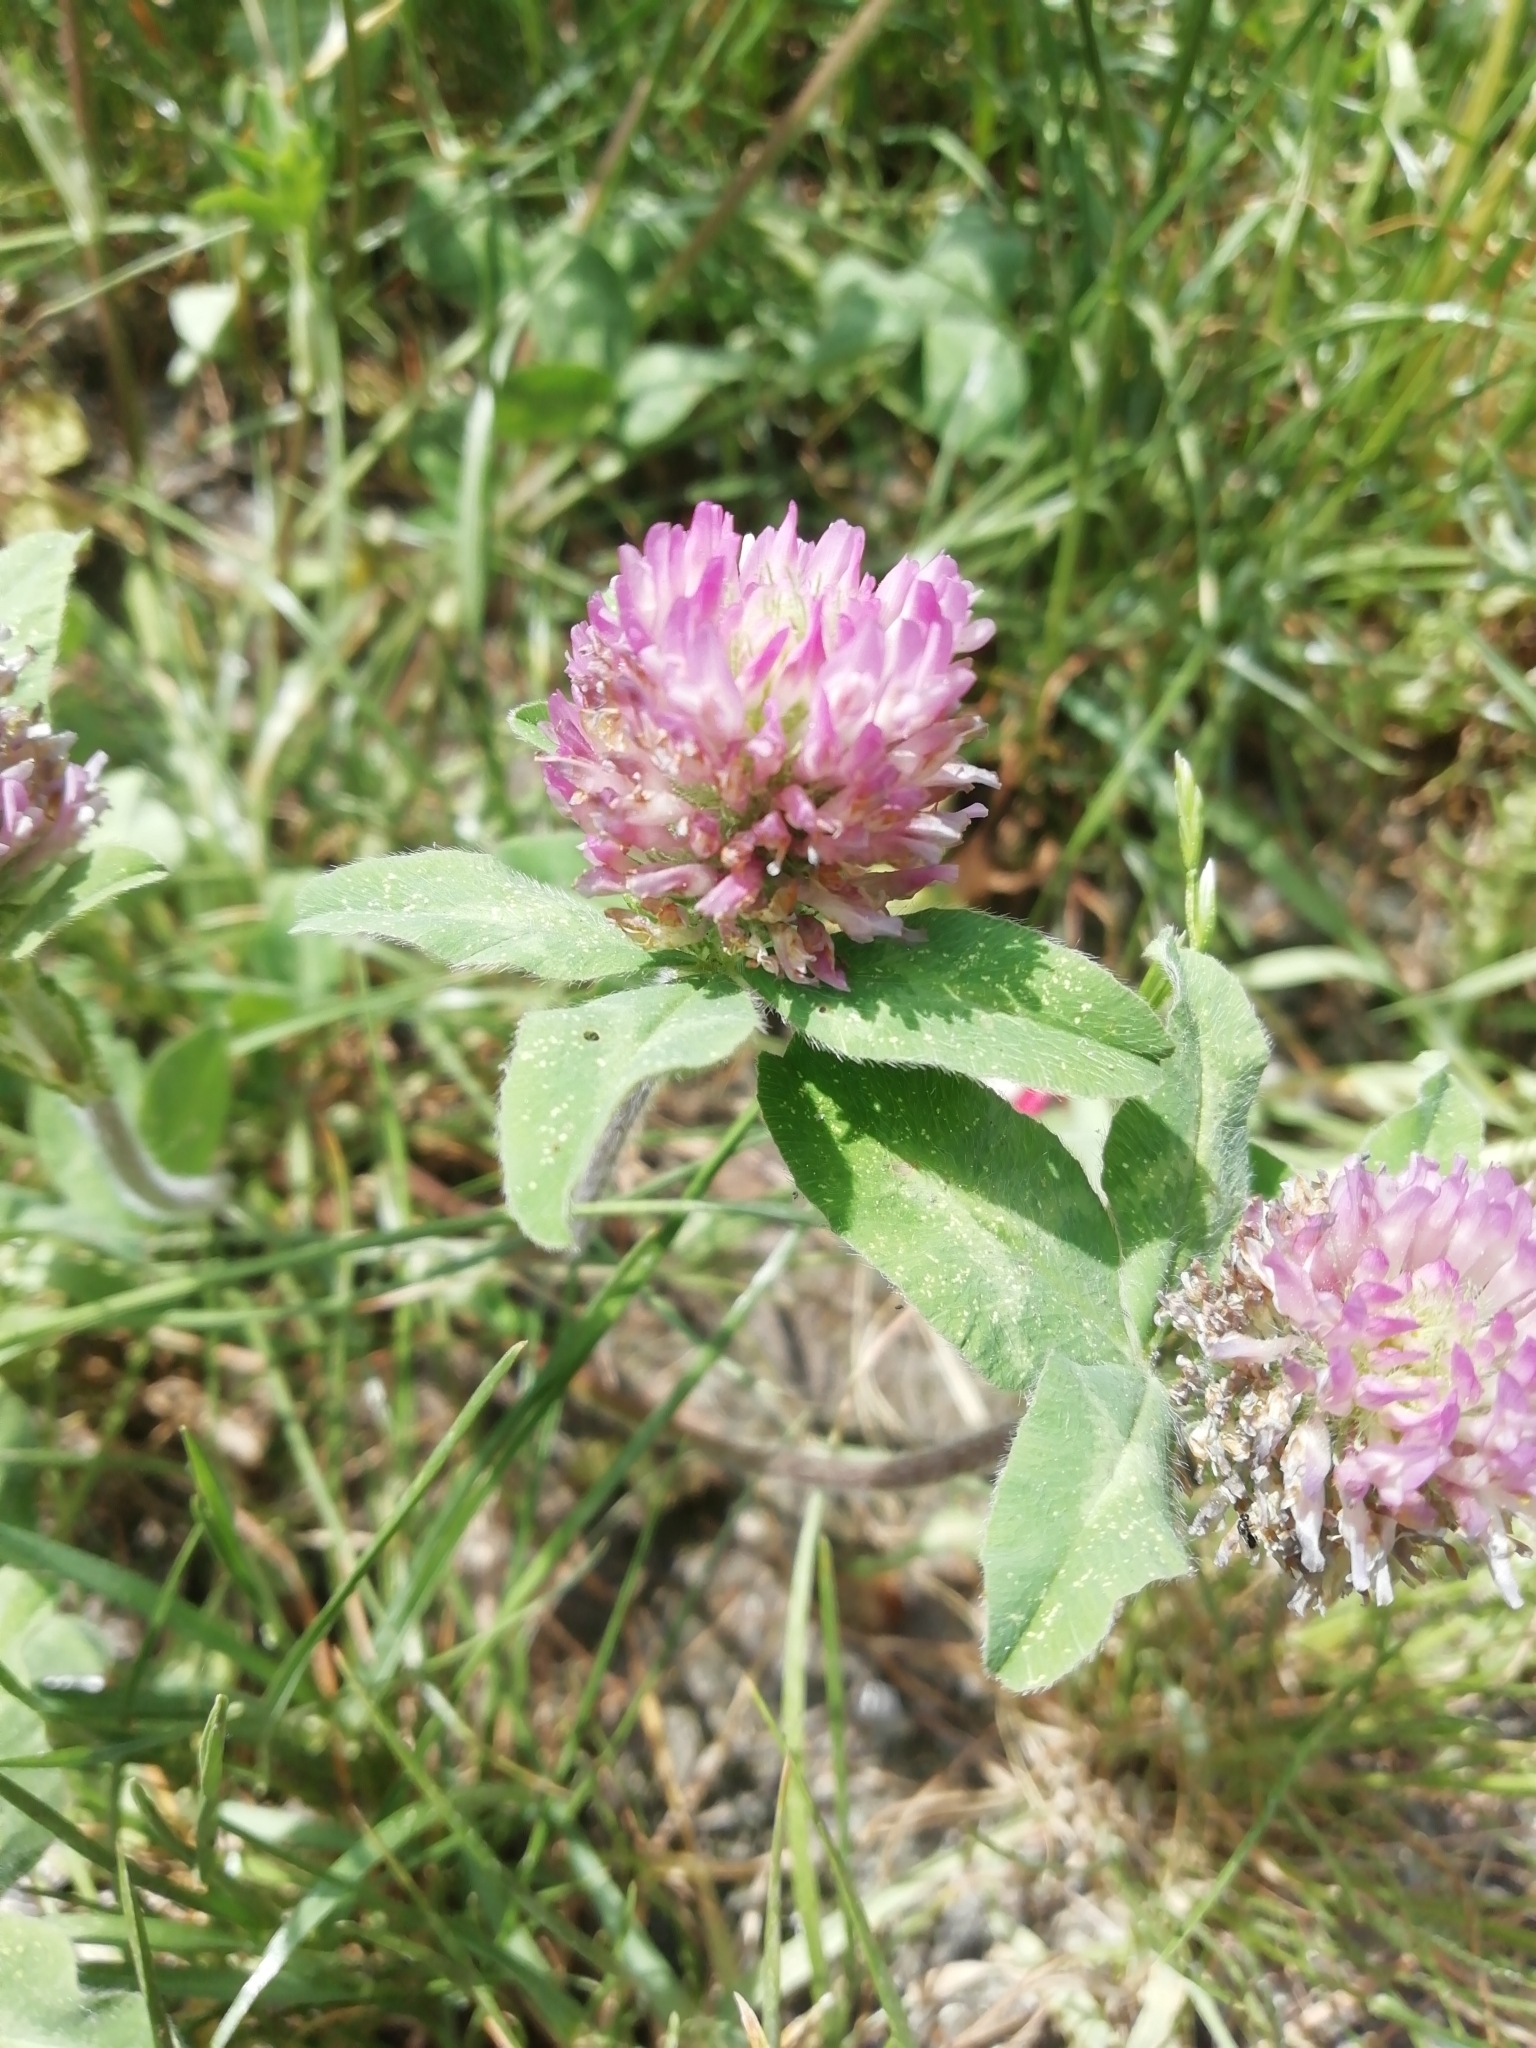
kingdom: Plantae
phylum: Tracheophyta
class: Magnoliopsida
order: Fabales
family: Fabaceae
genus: Trifolium
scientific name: Trifolium pratense
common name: Red clover
